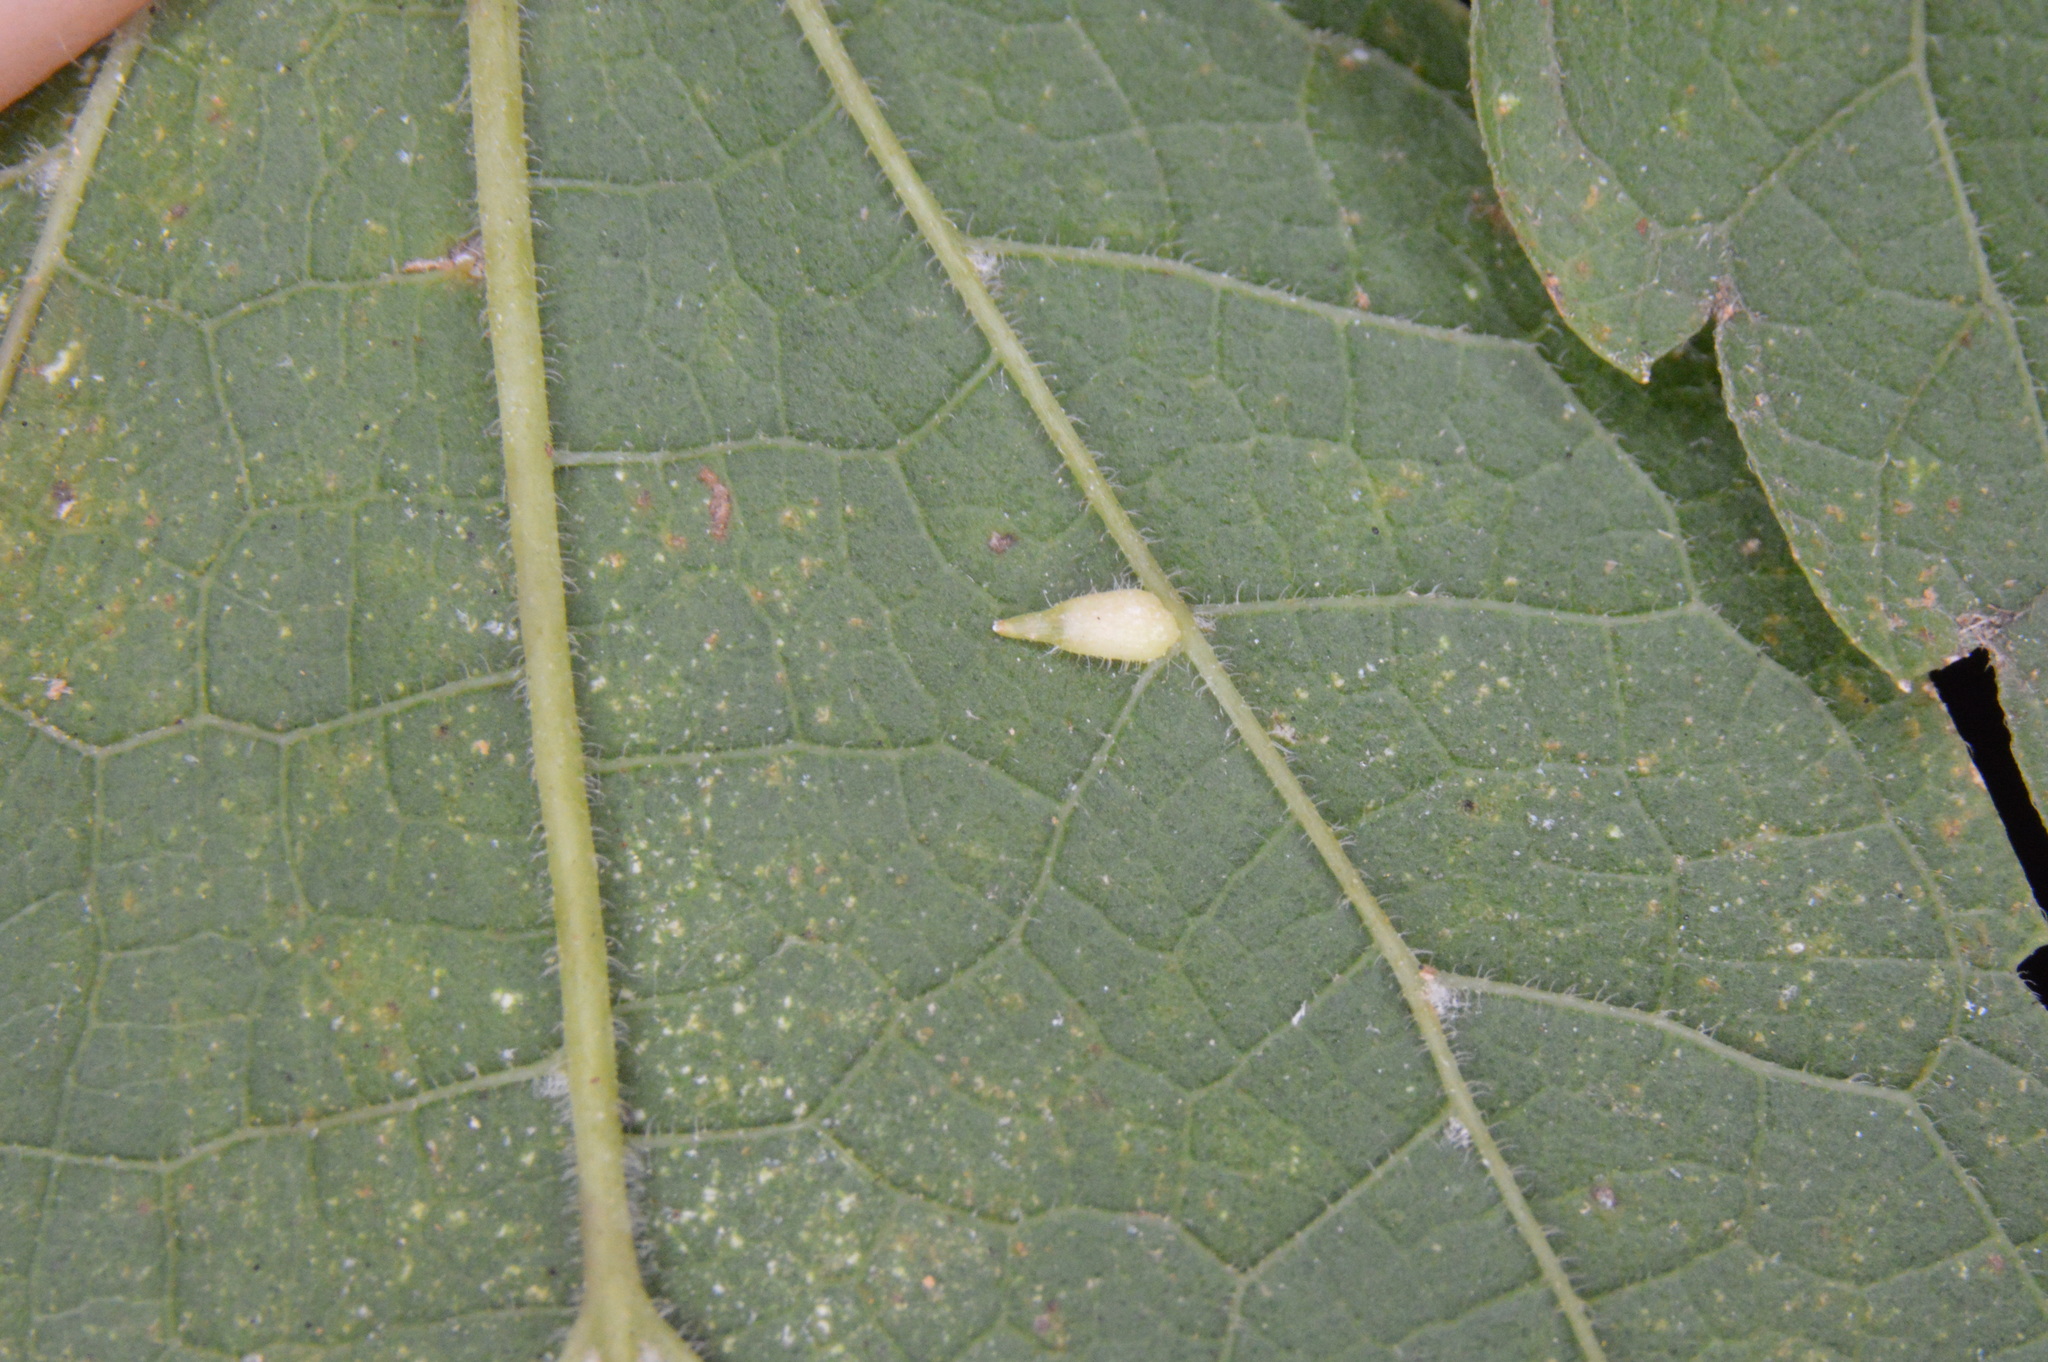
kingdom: Animalia
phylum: Arthropoda
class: Insecta
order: Diptera
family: Cecidomyiidae
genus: Celticecis
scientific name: Celticecis supina
